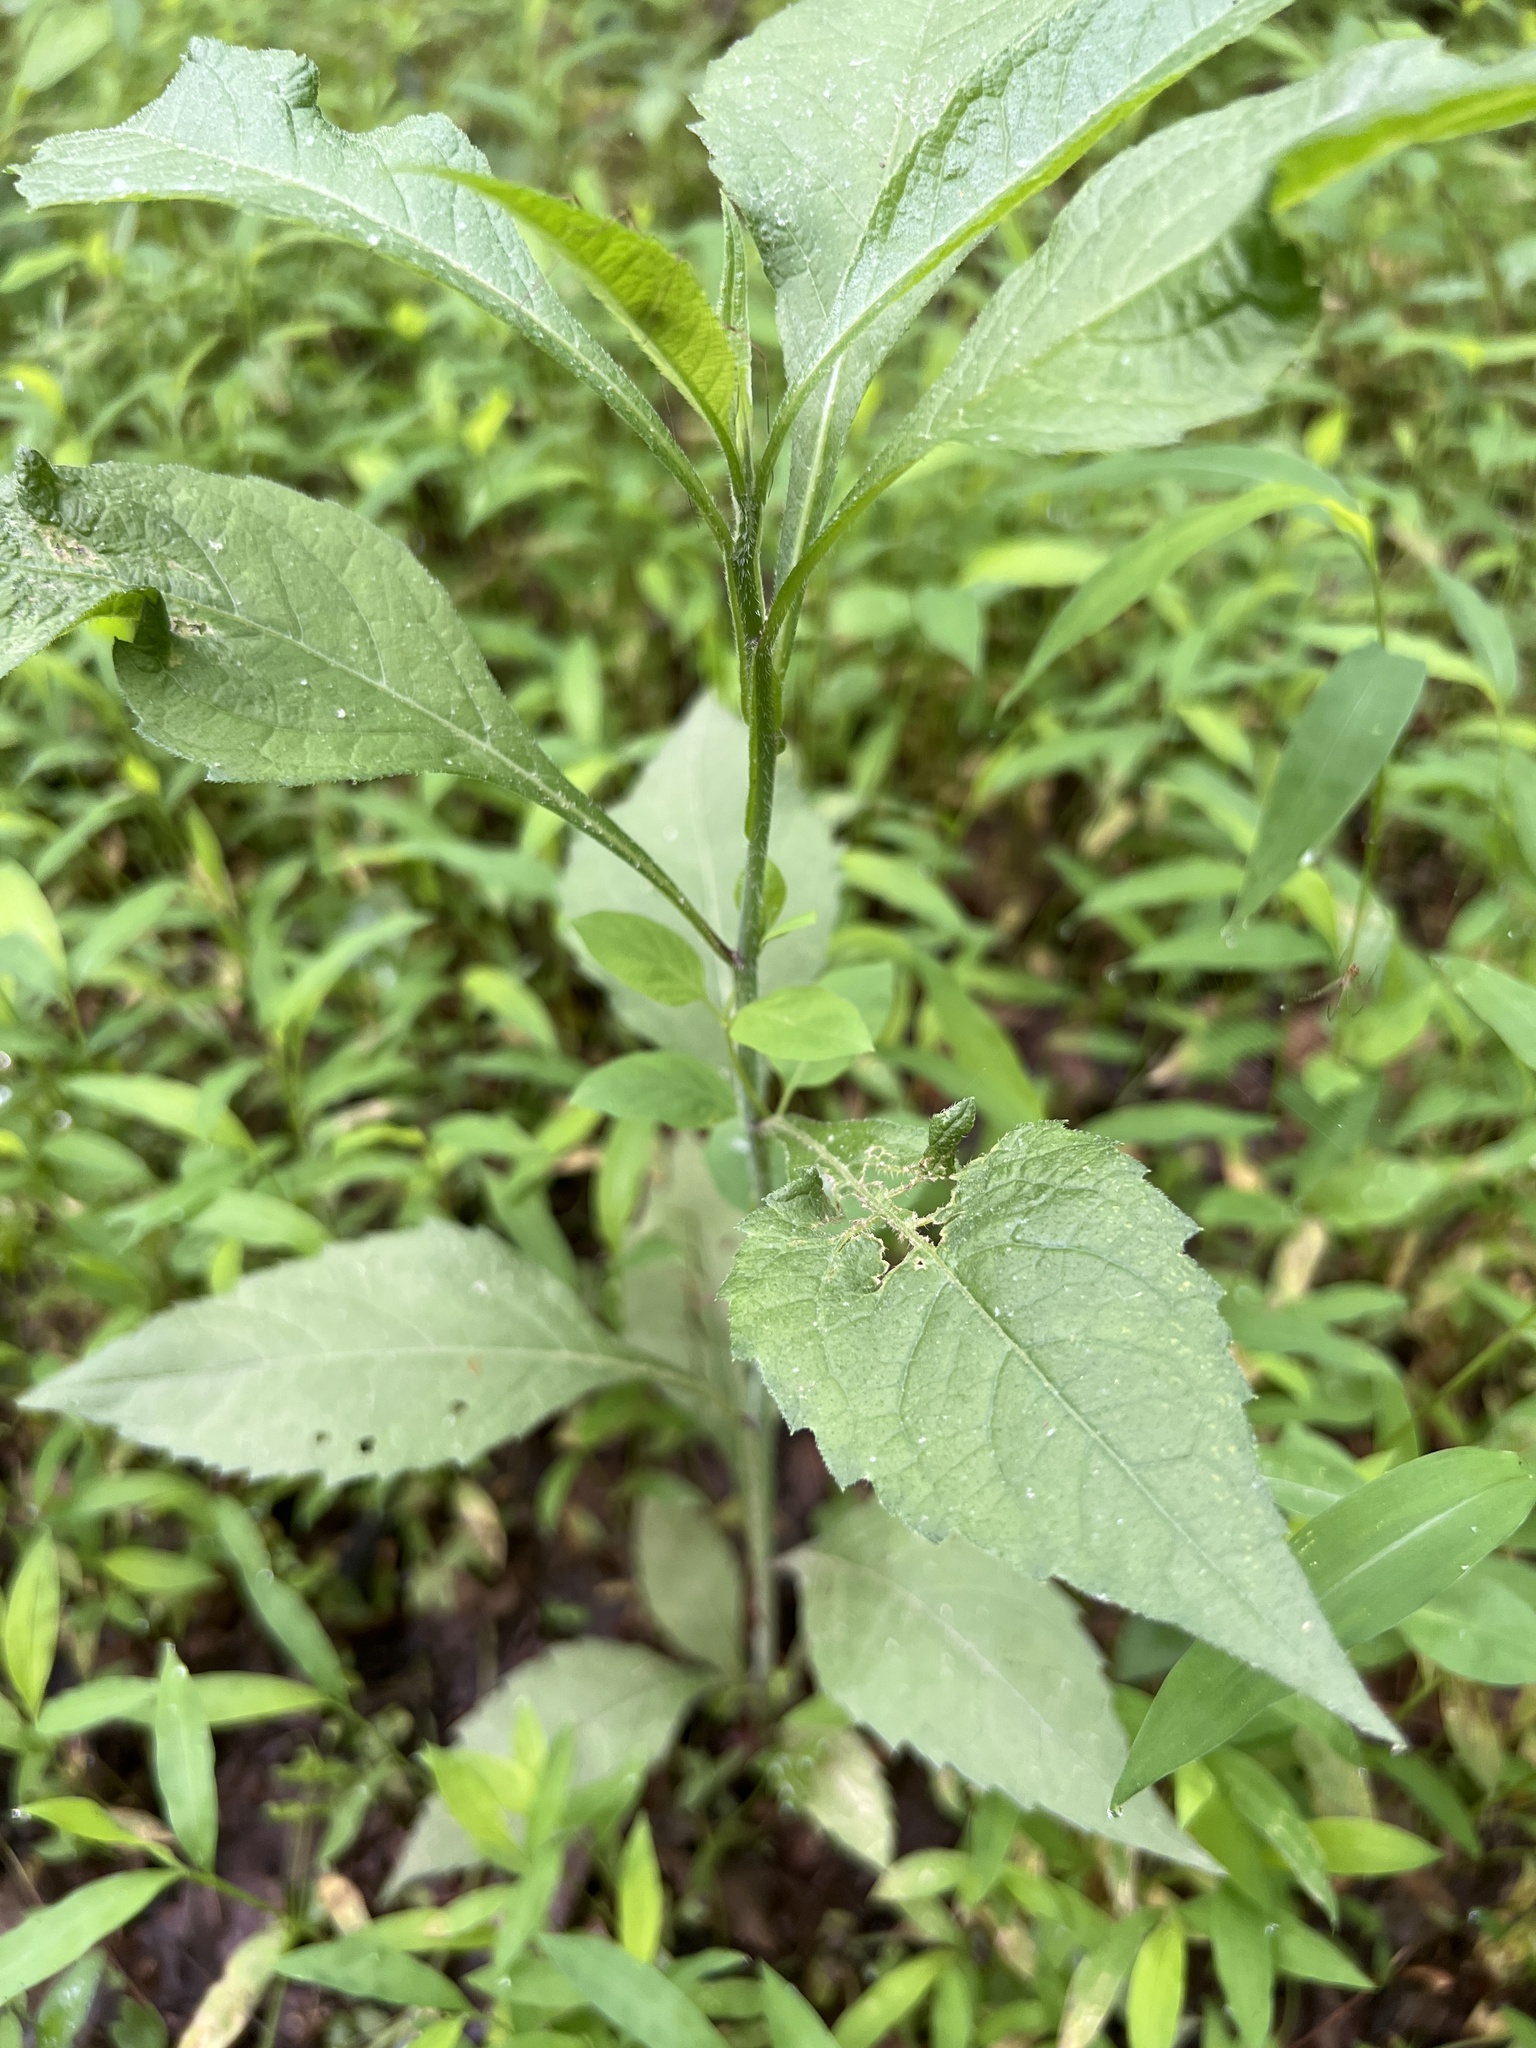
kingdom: Plantae
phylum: Tracheophyta
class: Magnoliopsida
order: Asterales
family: Asteraceae
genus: Elephantopus
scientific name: Elephantopus carolinianus
